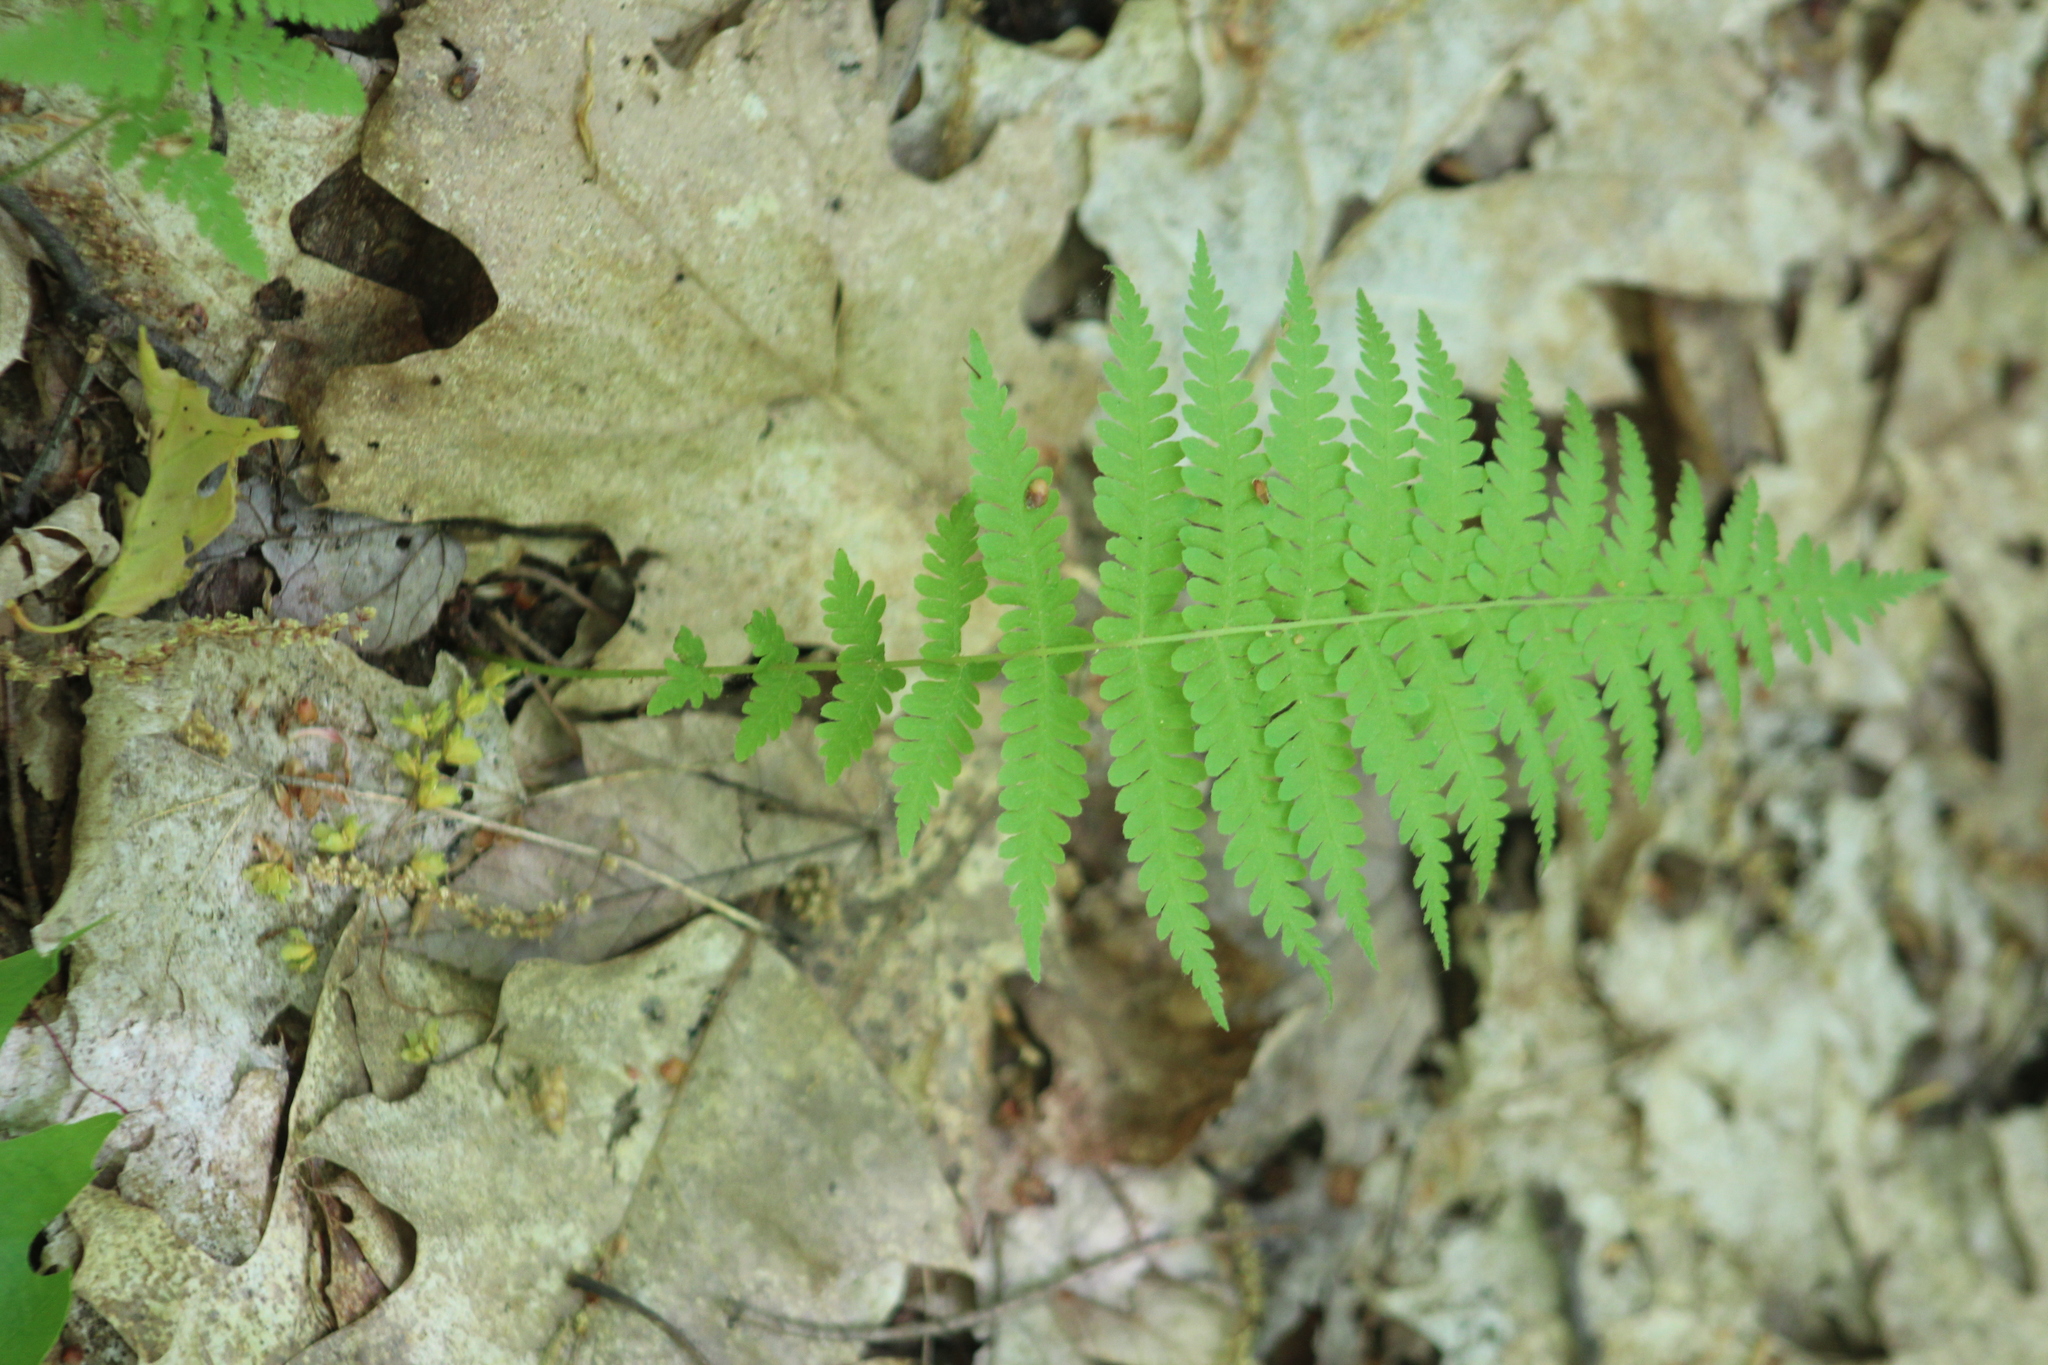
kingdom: Plantae
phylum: Tracheophyta
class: Polypodiopsida
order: Polypodiales
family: Thelypteridaceae
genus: Amauropelta
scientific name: Amauropelta noveboracensis
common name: New york fern
